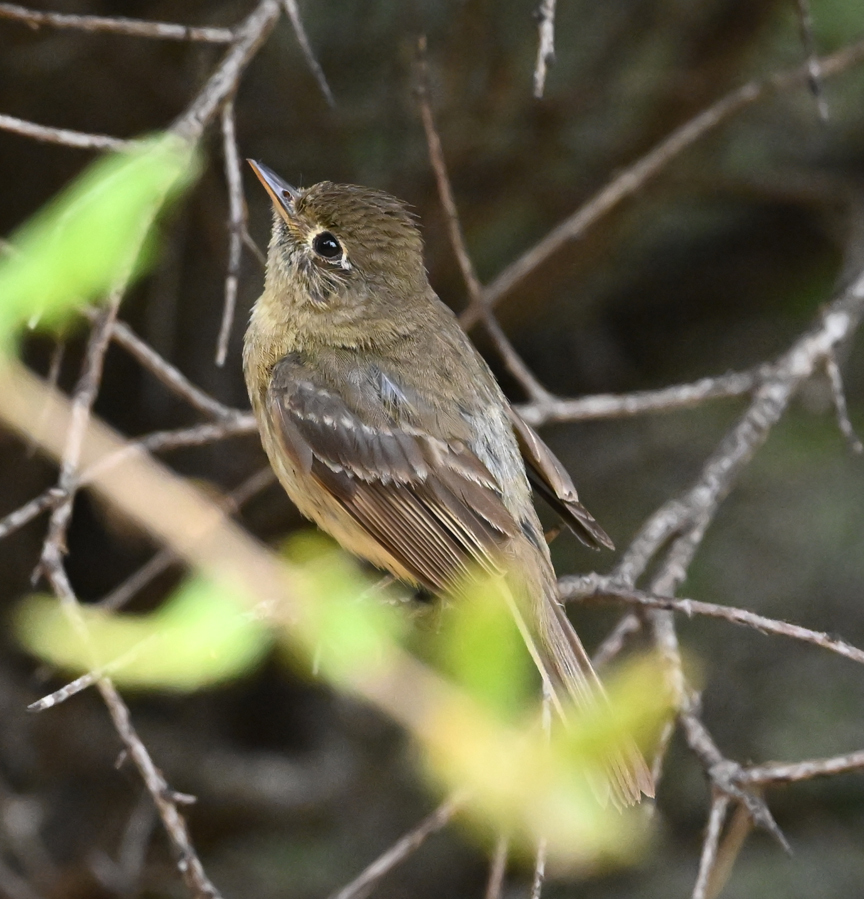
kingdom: Animalia
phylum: Chordata
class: Aves
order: Passeriformes
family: Tyrannidae
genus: Empidonax
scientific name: Empidonax difficilis
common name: Pacific-slope flycatcher
